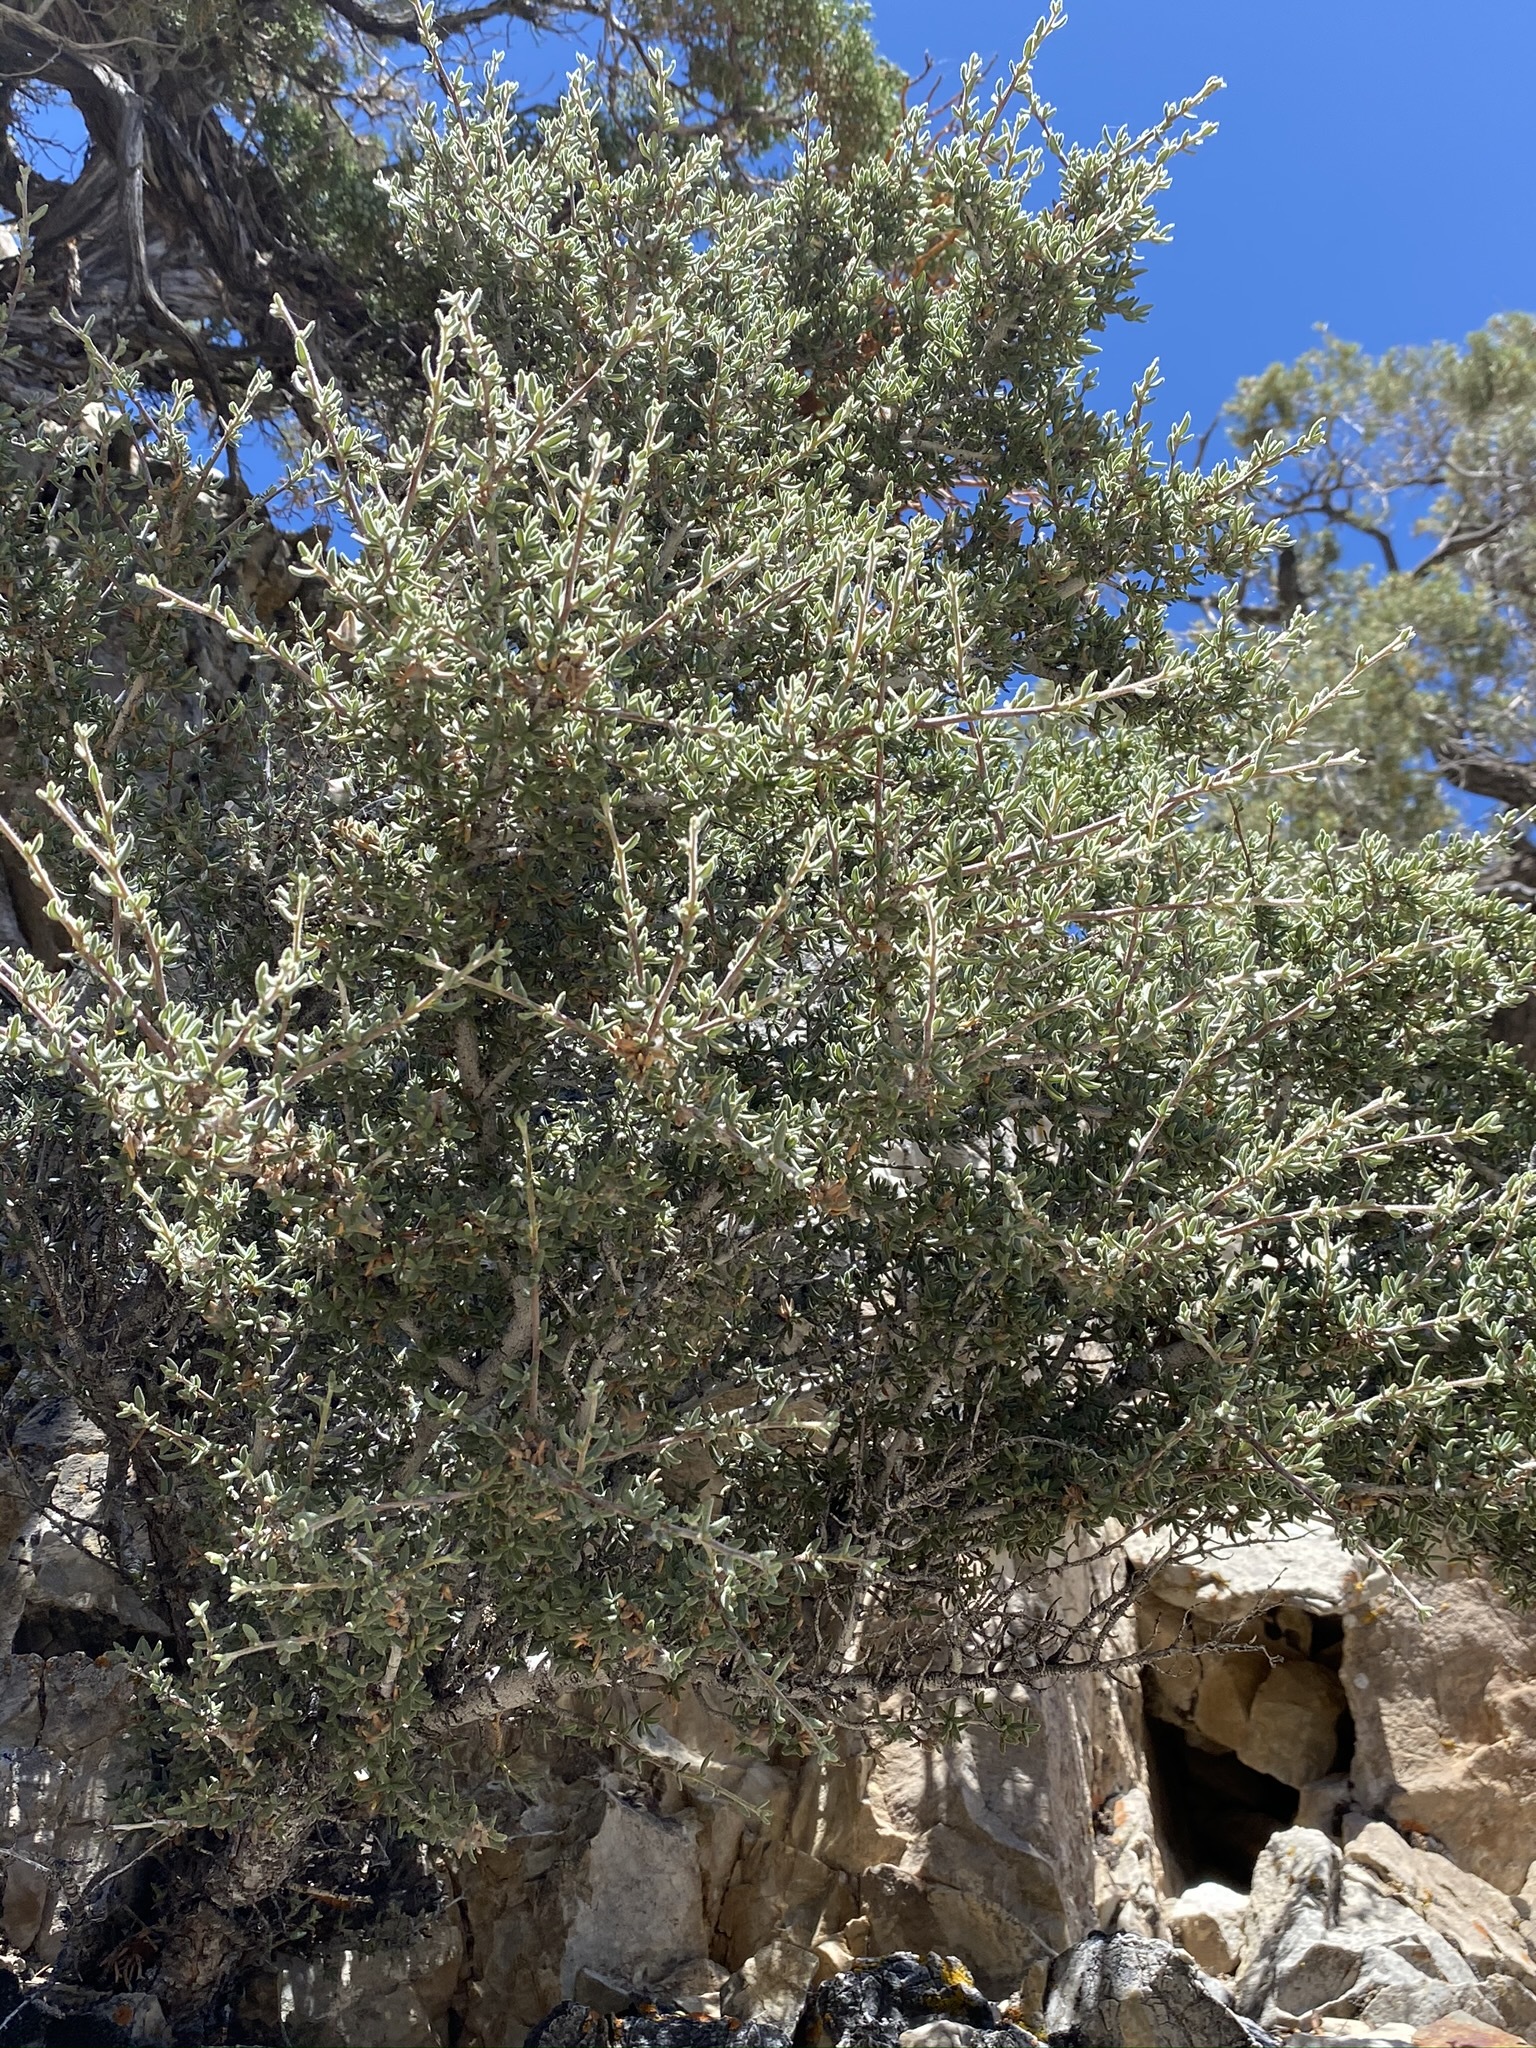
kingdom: Plantae
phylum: Tracheophyta
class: Magnoliopsida
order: Rosales
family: Rosaceae
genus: Cercocarpus
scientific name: Cercocarpus intricatus
